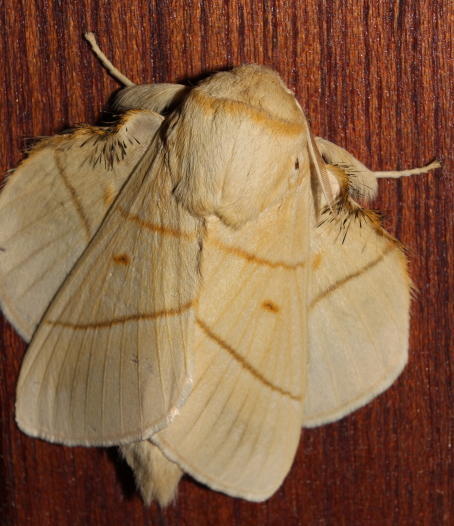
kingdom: Animalia
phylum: Arthropoda
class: Insecta
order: Lepidoptera
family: Lasiocampidae
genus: Trichopisthia
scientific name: Trichopisthia monteiroi
